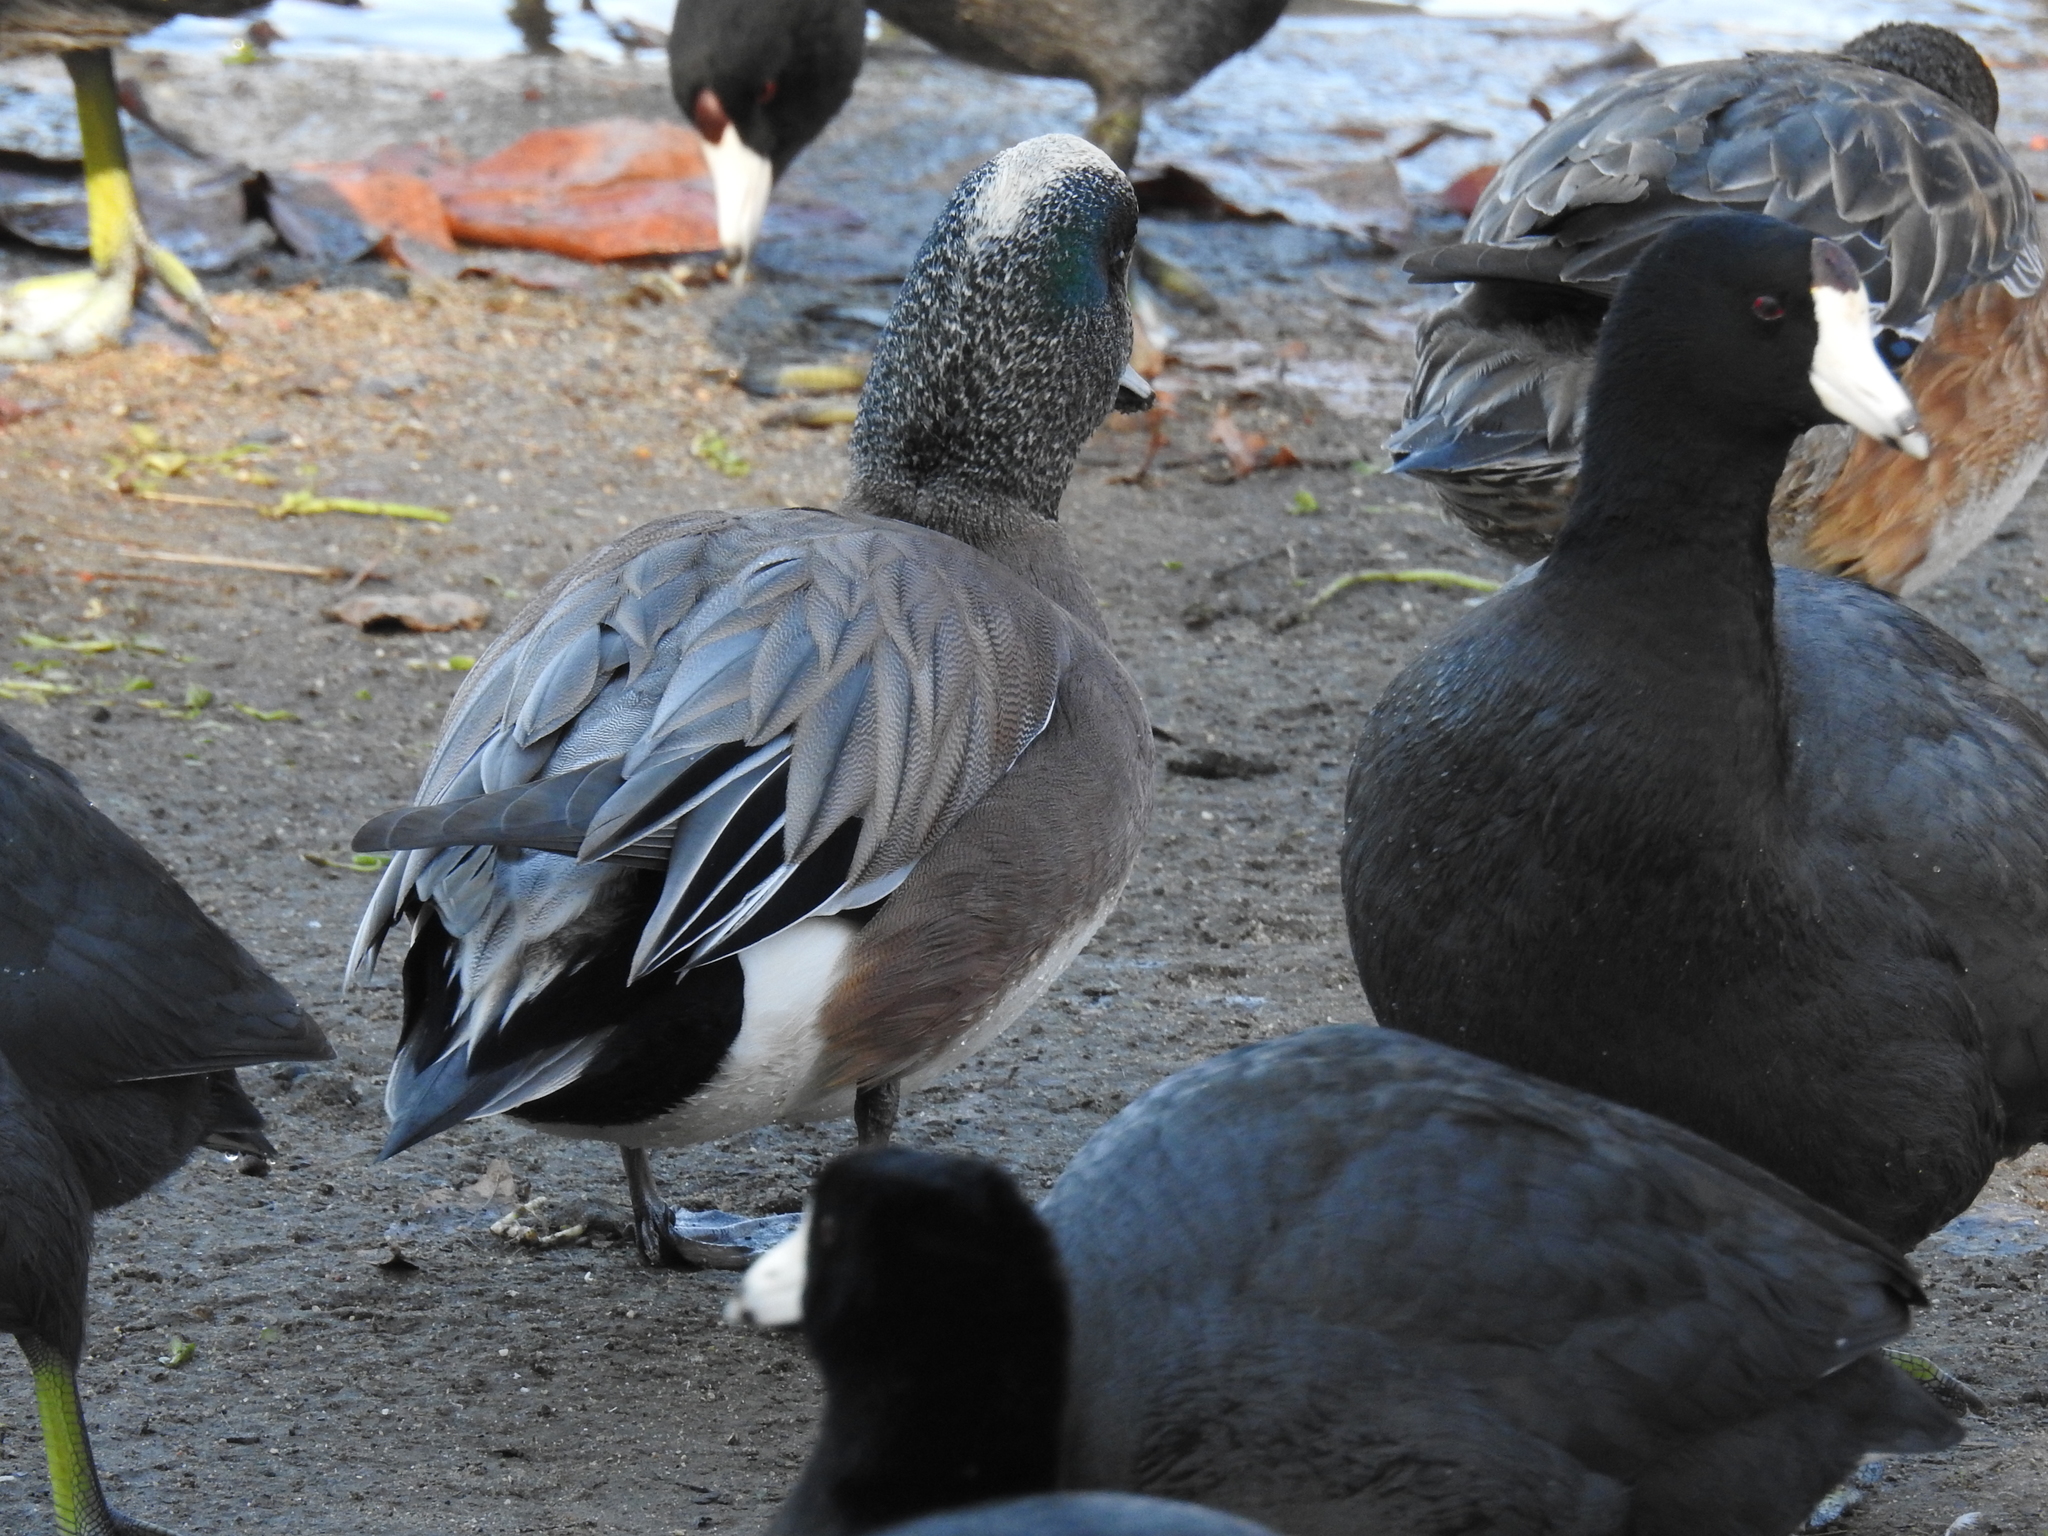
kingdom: Animalia
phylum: Chordata
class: Aves
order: Anseriformes
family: Anatidae
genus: Mareca
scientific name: Mareca americana
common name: American wigeon
